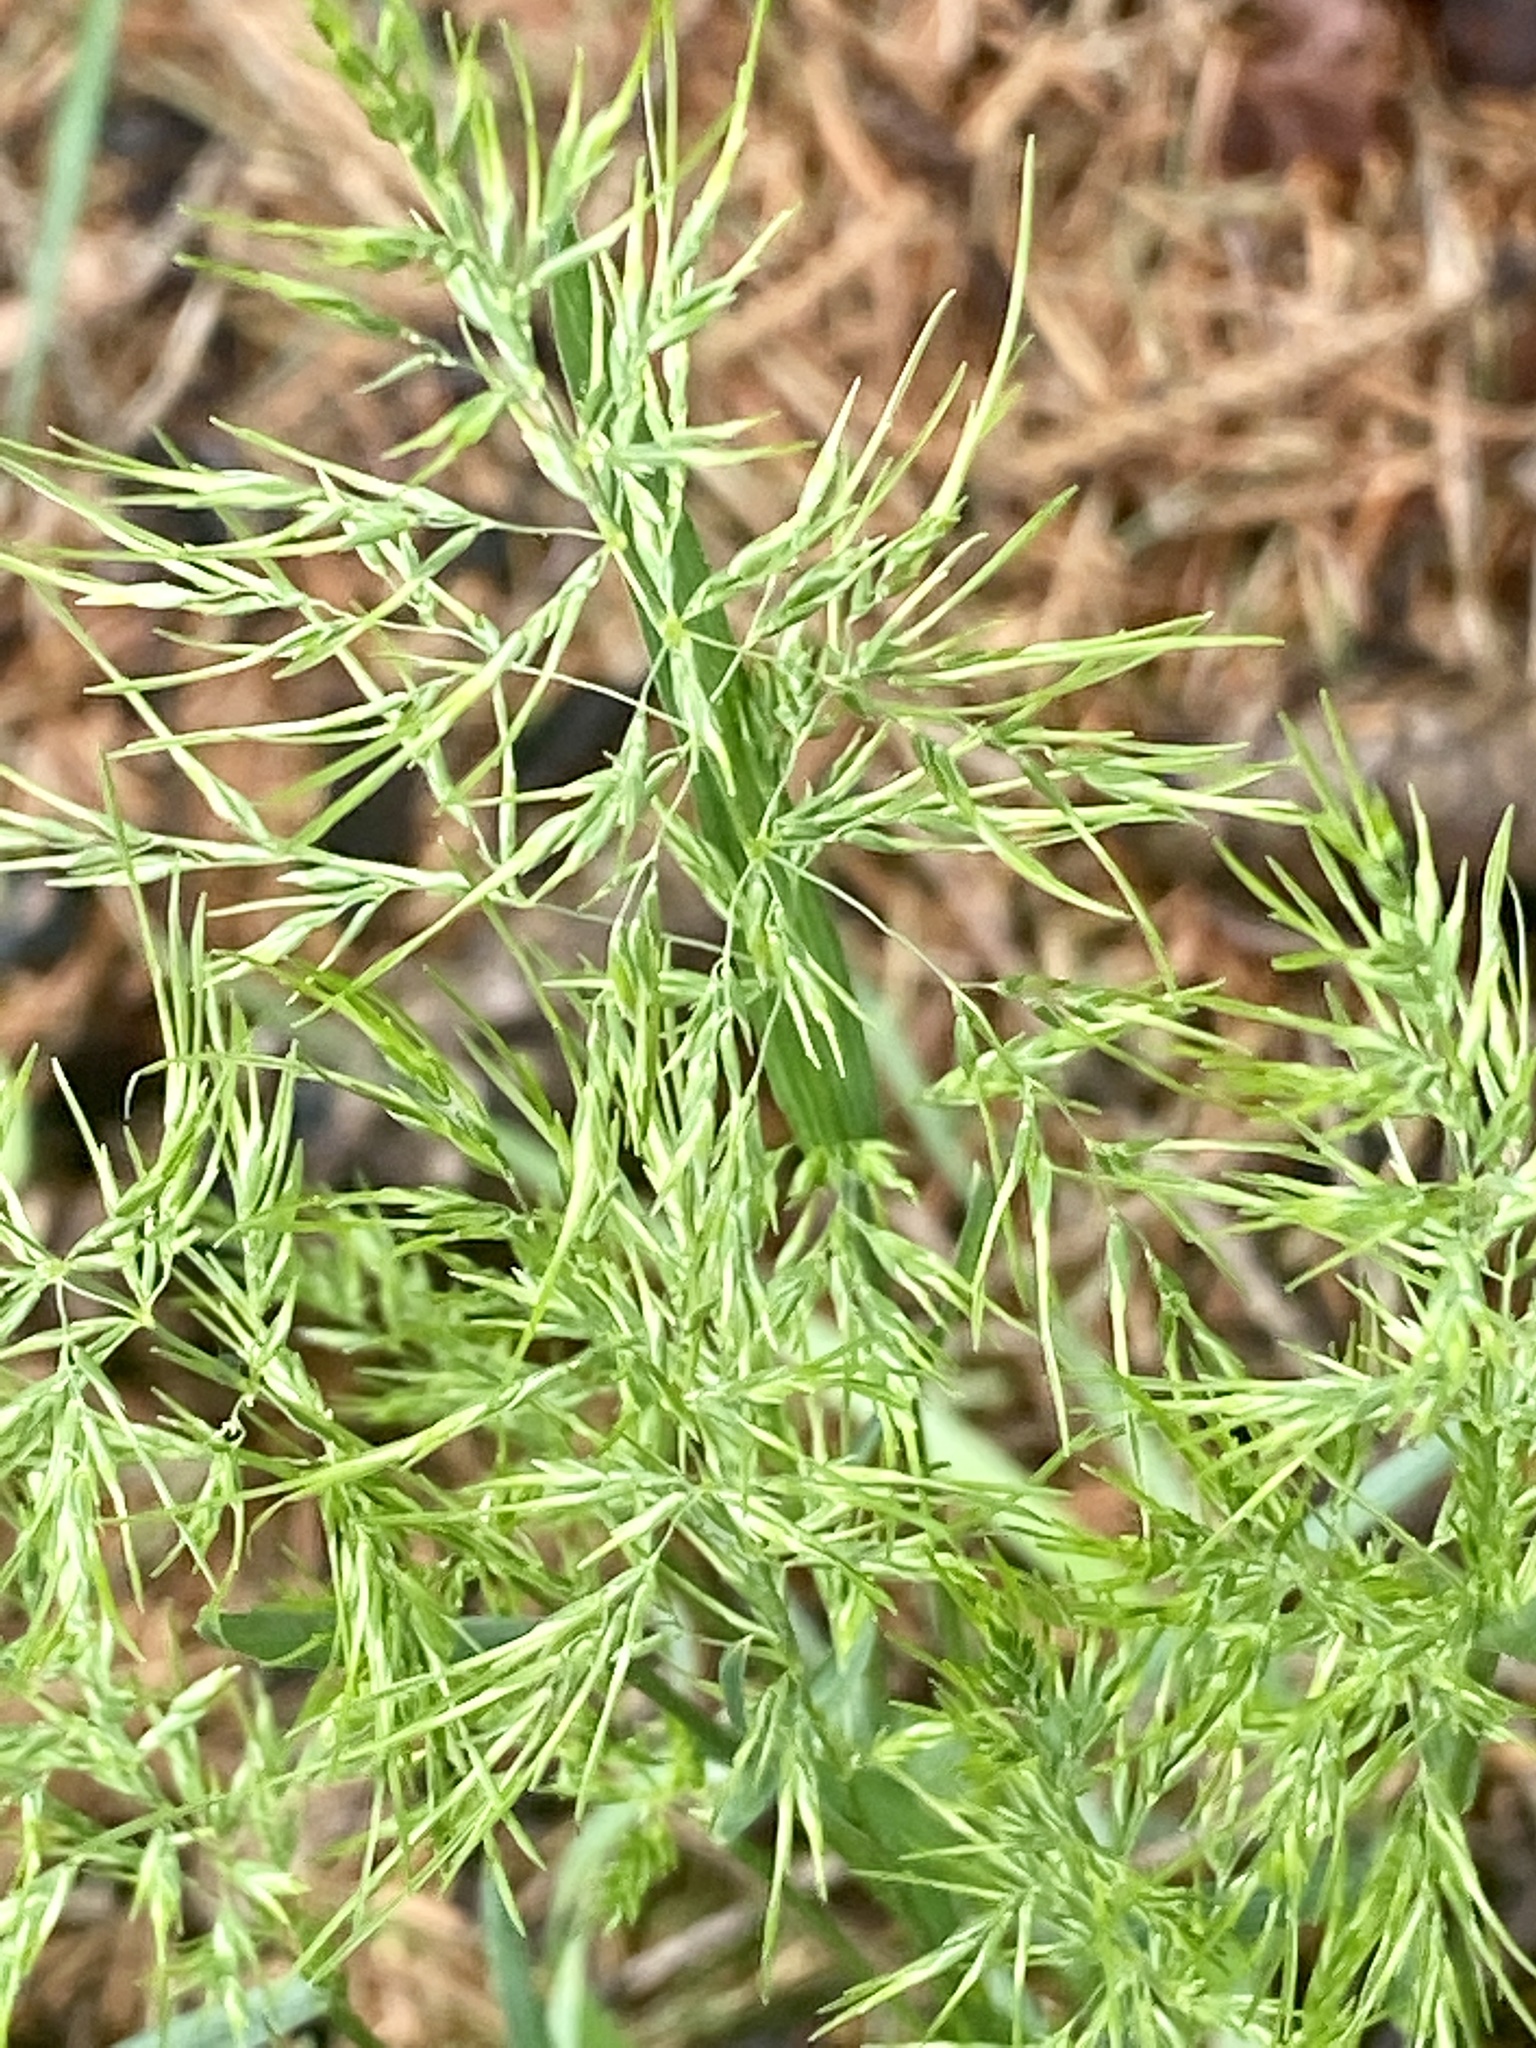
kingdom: Plantae
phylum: Tracheophyta
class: Liliopsida
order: Poales
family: Poaceae
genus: Poa
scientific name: Poa bulbosa
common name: Bulbous bluegrass
